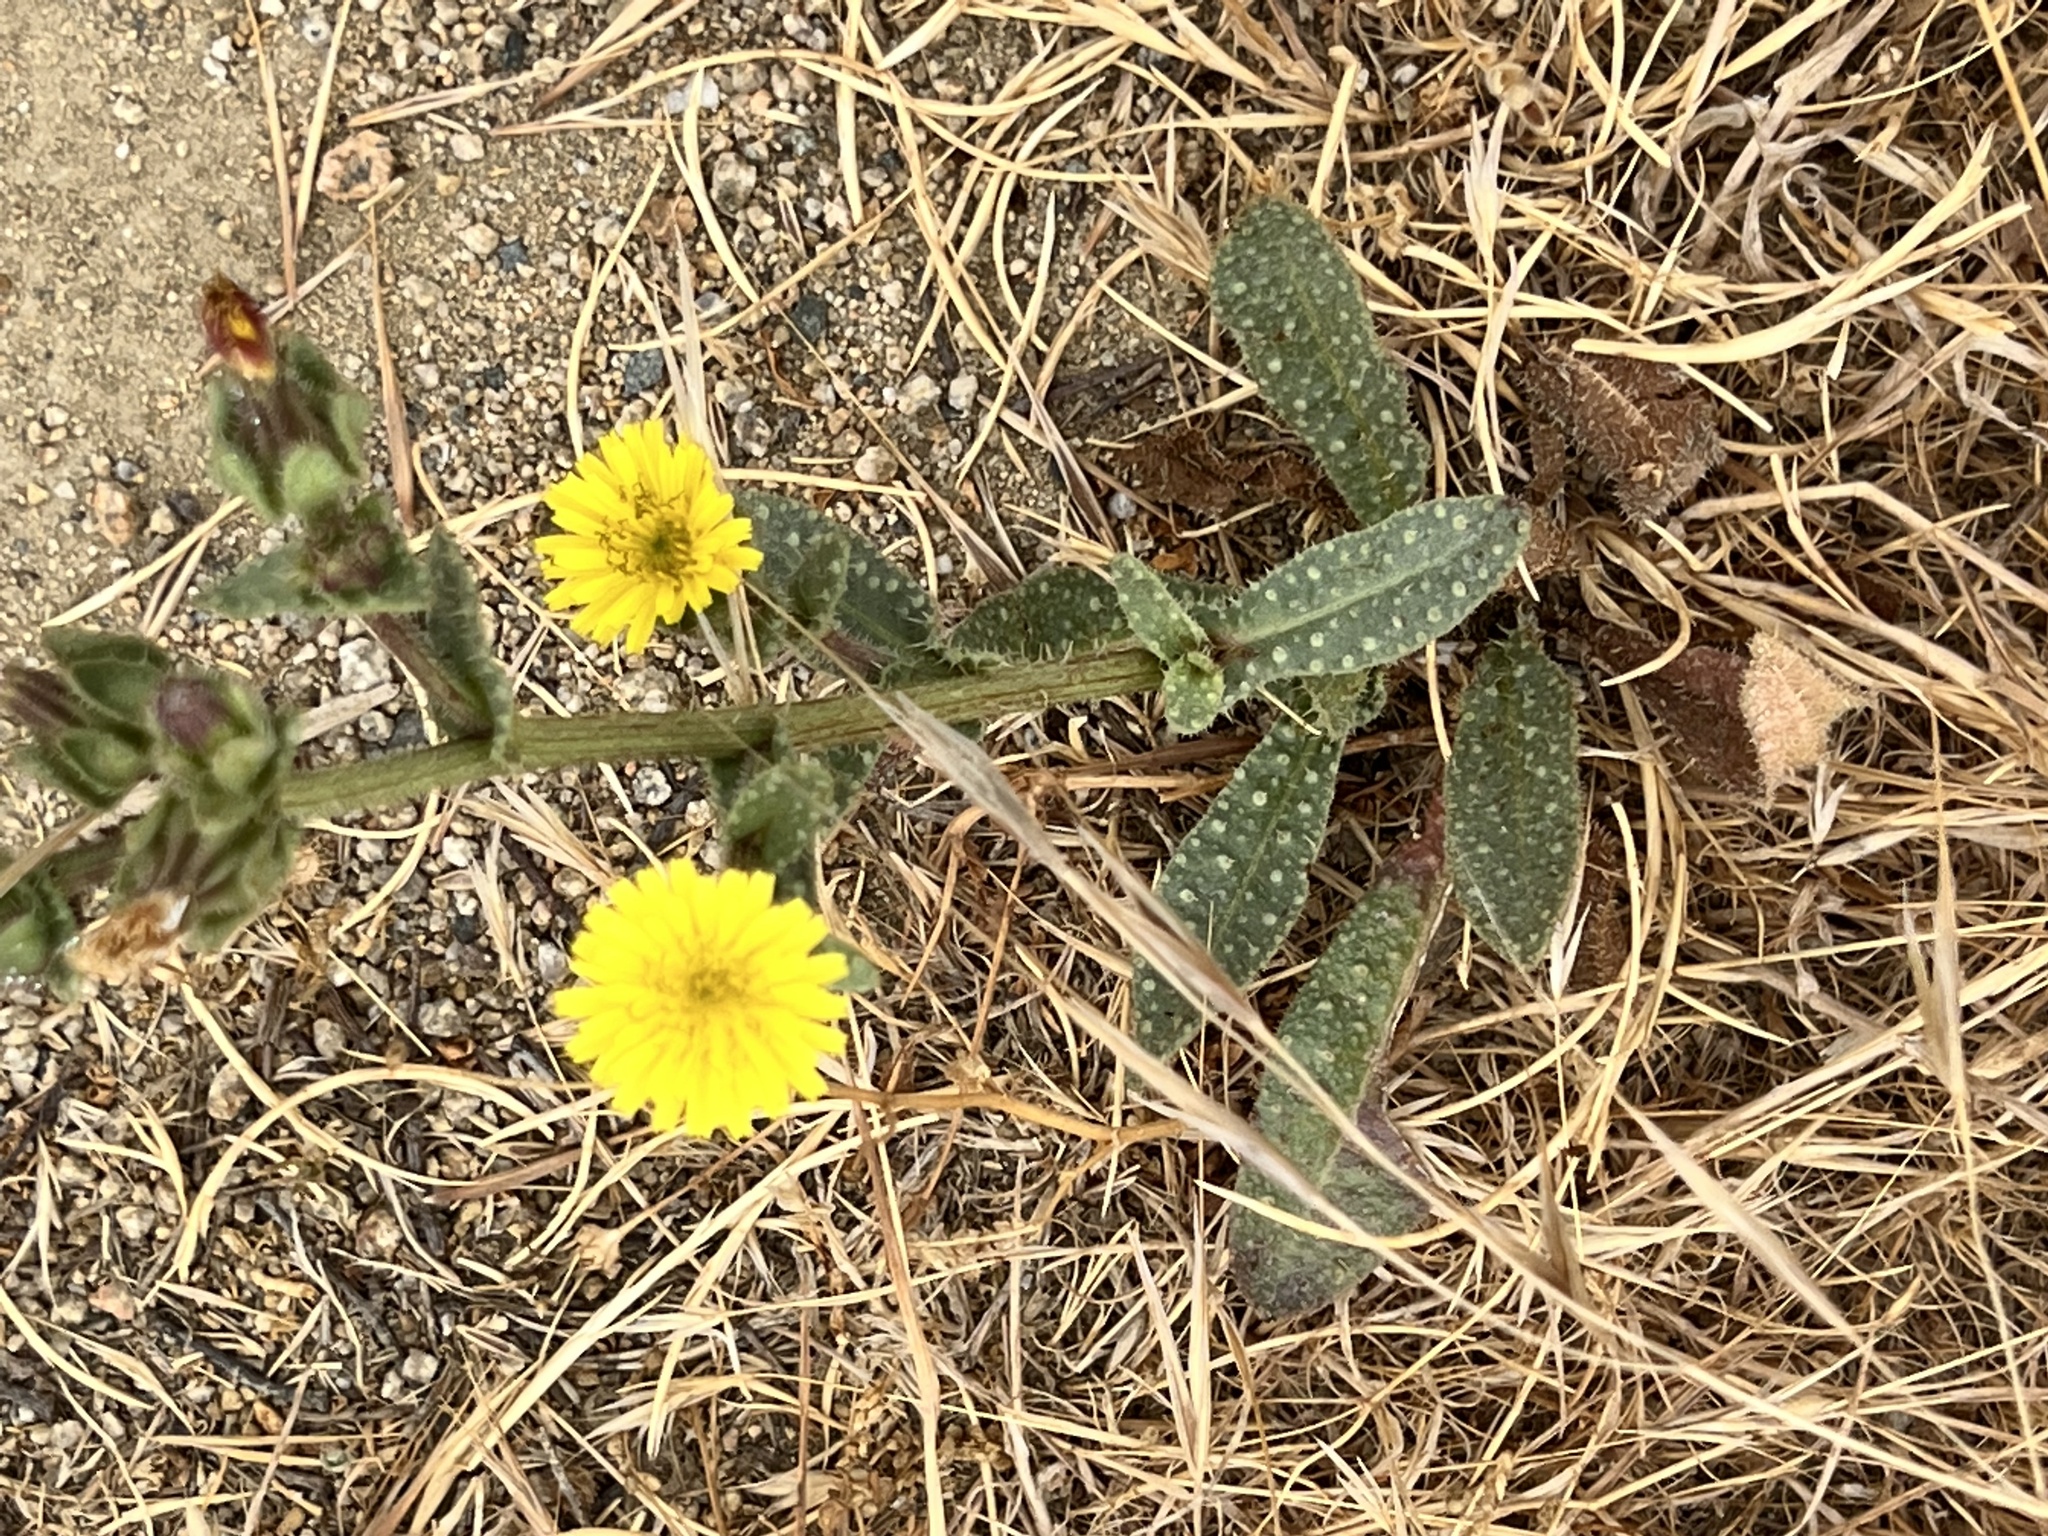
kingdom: Plantae
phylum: Tracheophyta
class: Magnoliopsida
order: Asterales
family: Asteraceae
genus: Helminthotheca
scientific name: Helminthotheca echioides
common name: Ox-tongue
